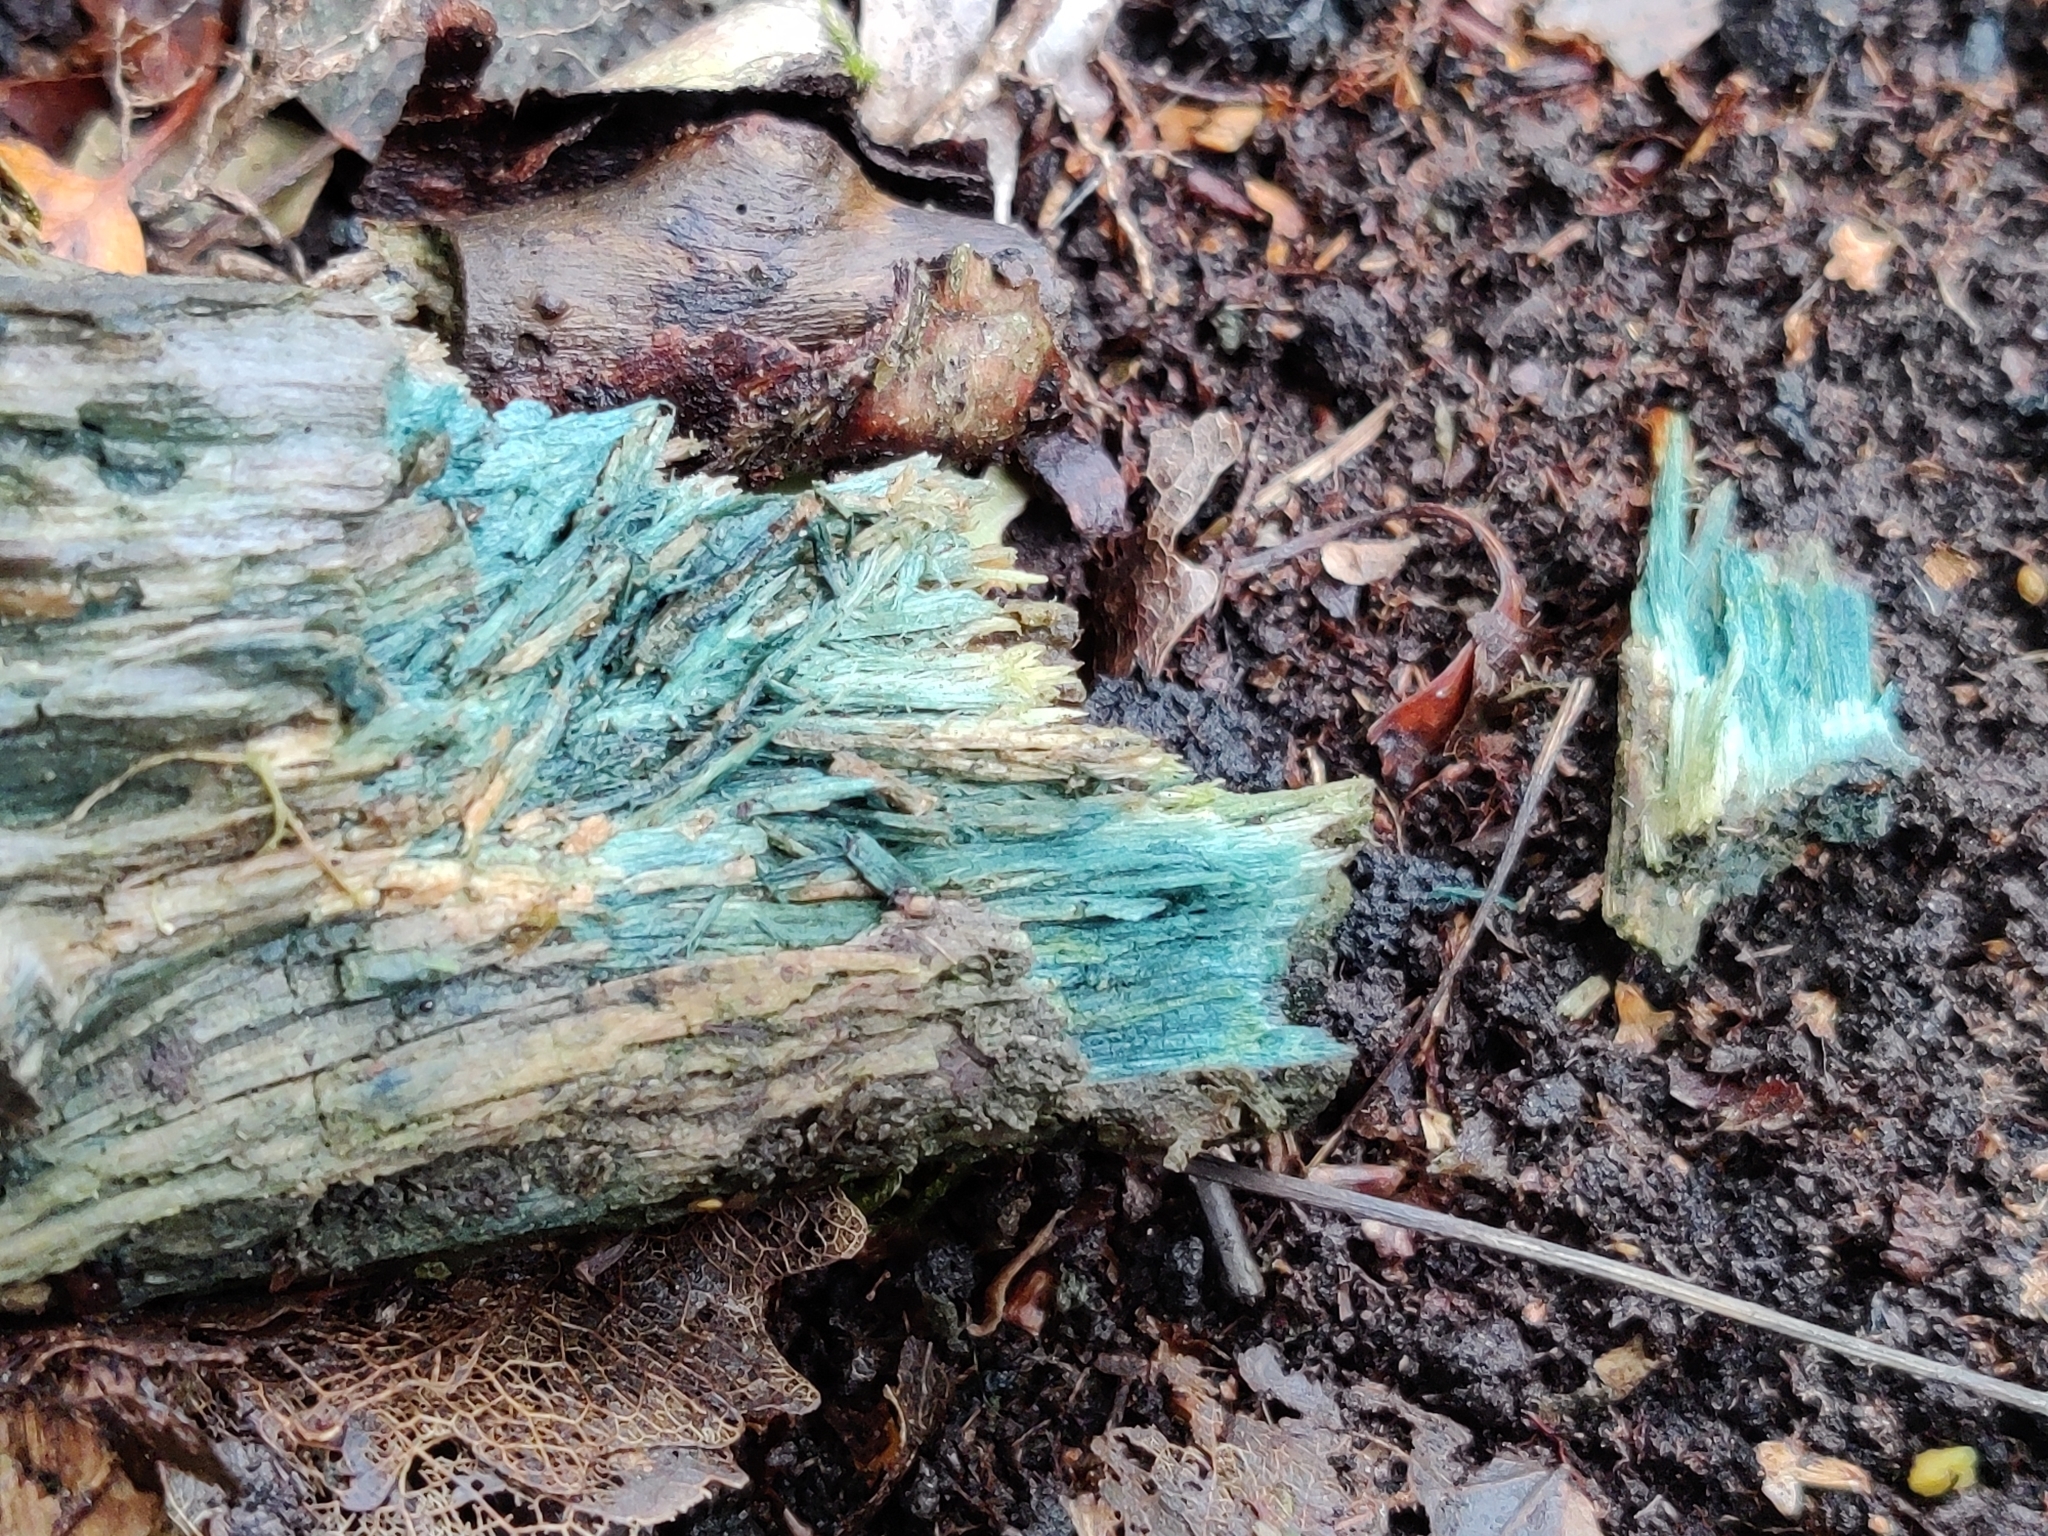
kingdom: Fungi
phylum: Ascomycota
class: Leotiomycetes
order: Helotiales
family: Chlorociboriaceae
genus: Chlorociboria
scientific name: Chlorociboria
